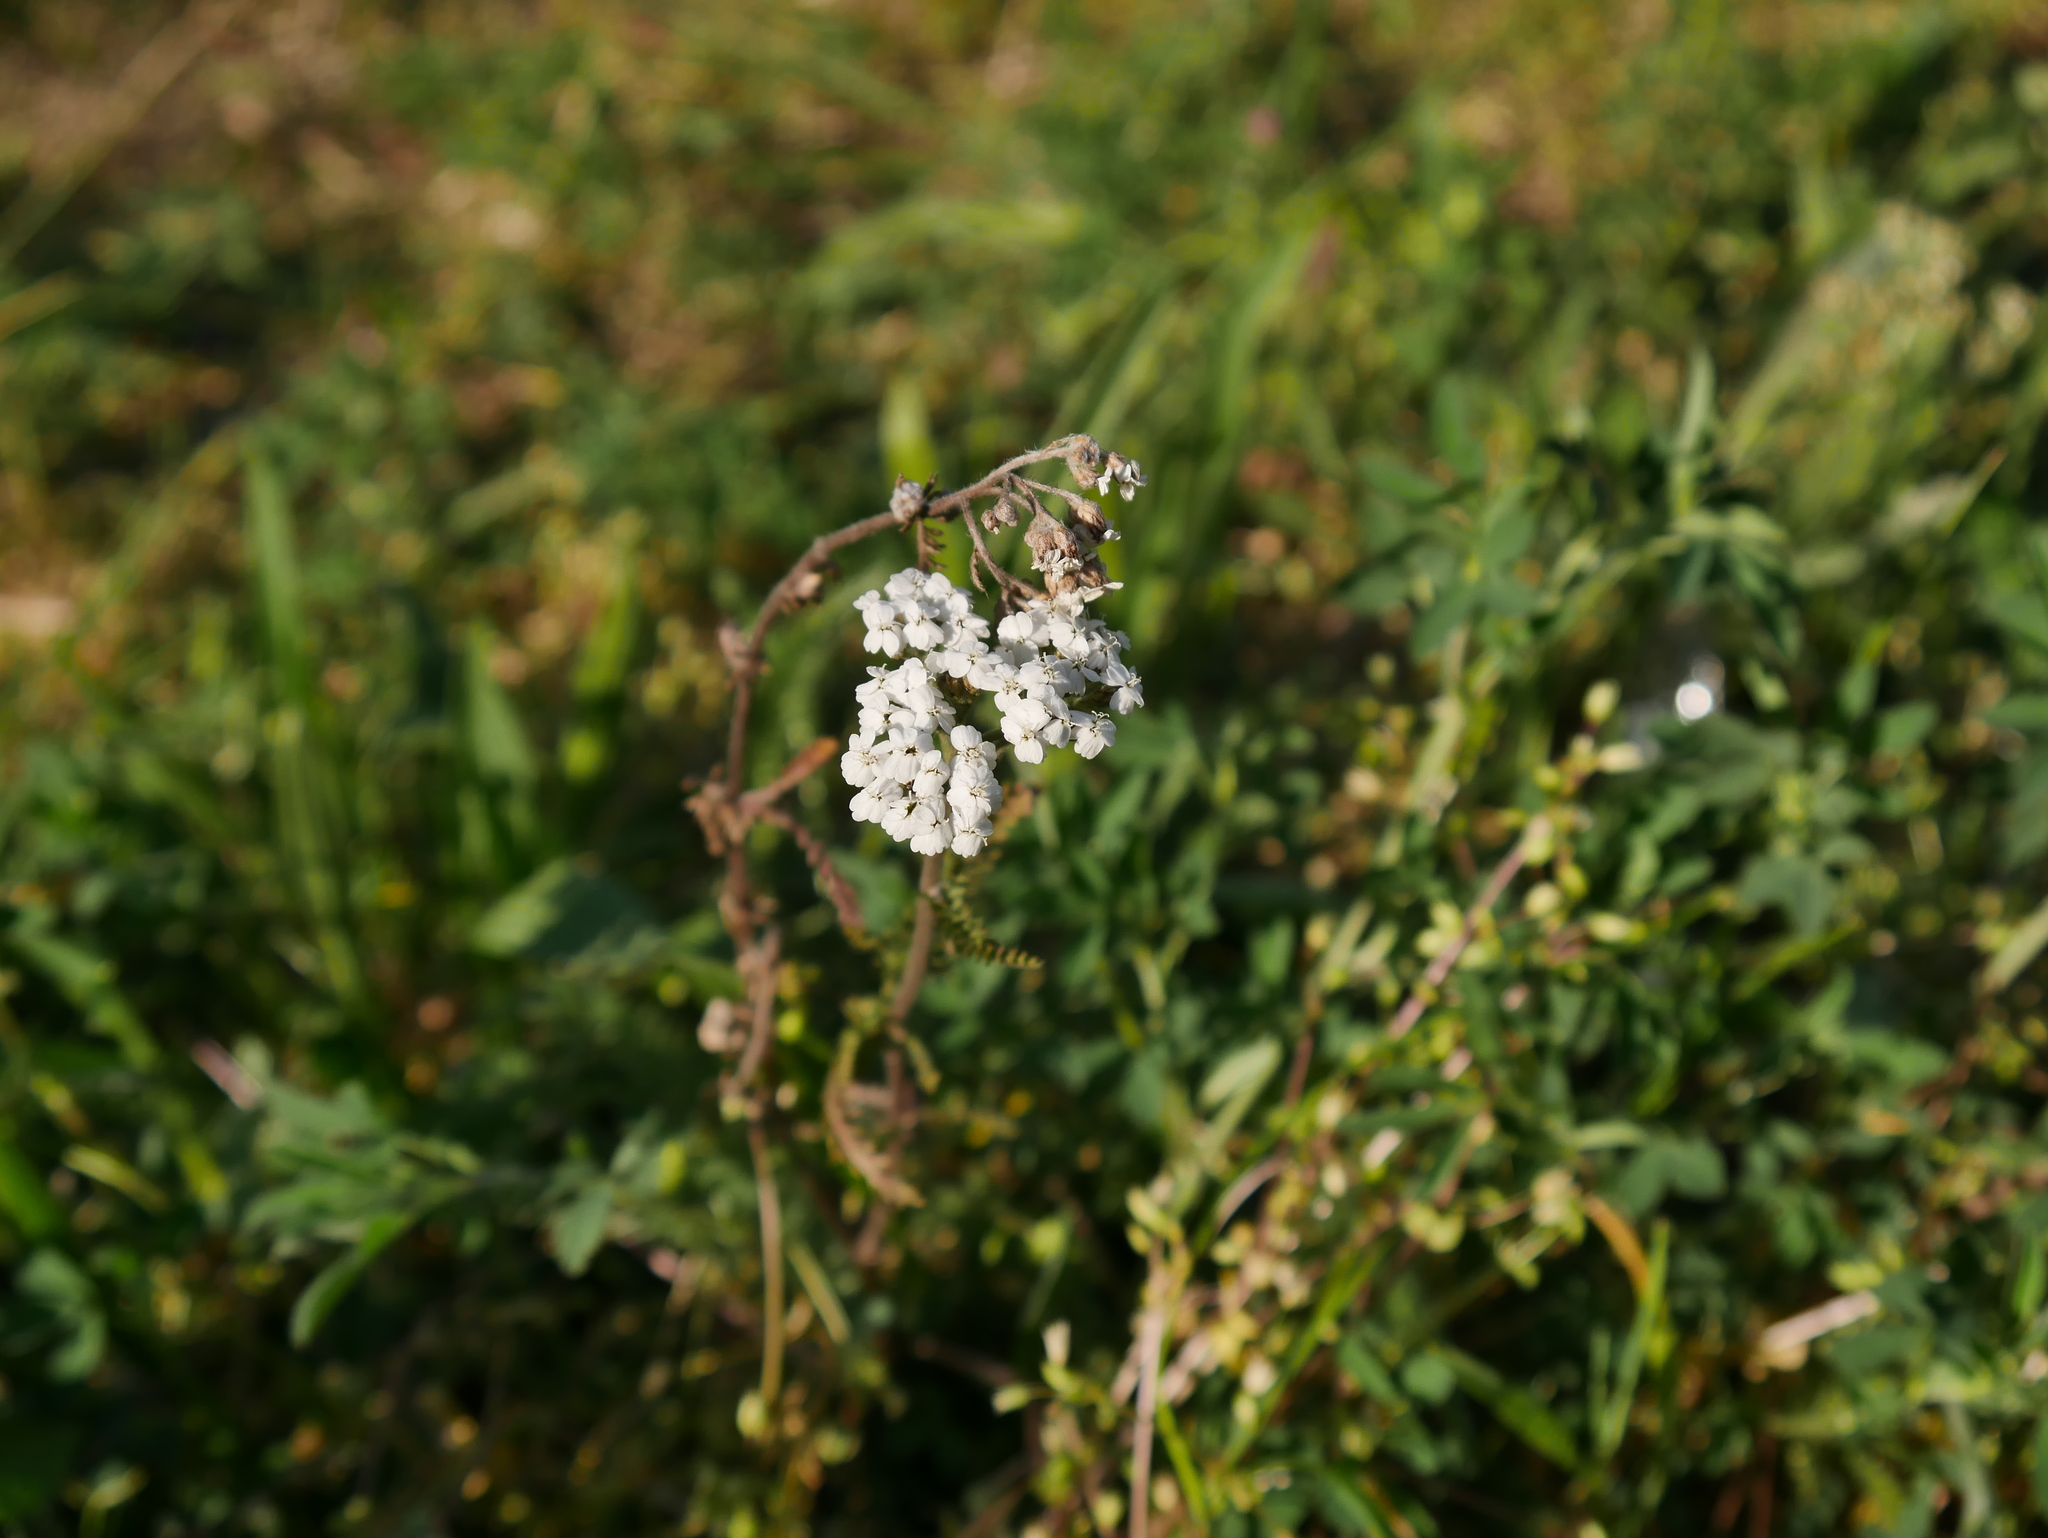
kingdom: Plantae
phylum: Tracheophyta
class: Magnoliopsida
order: Asterales
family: Asteraceae
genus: Achillea
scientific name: Achillea millefolium
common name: Yarrow
